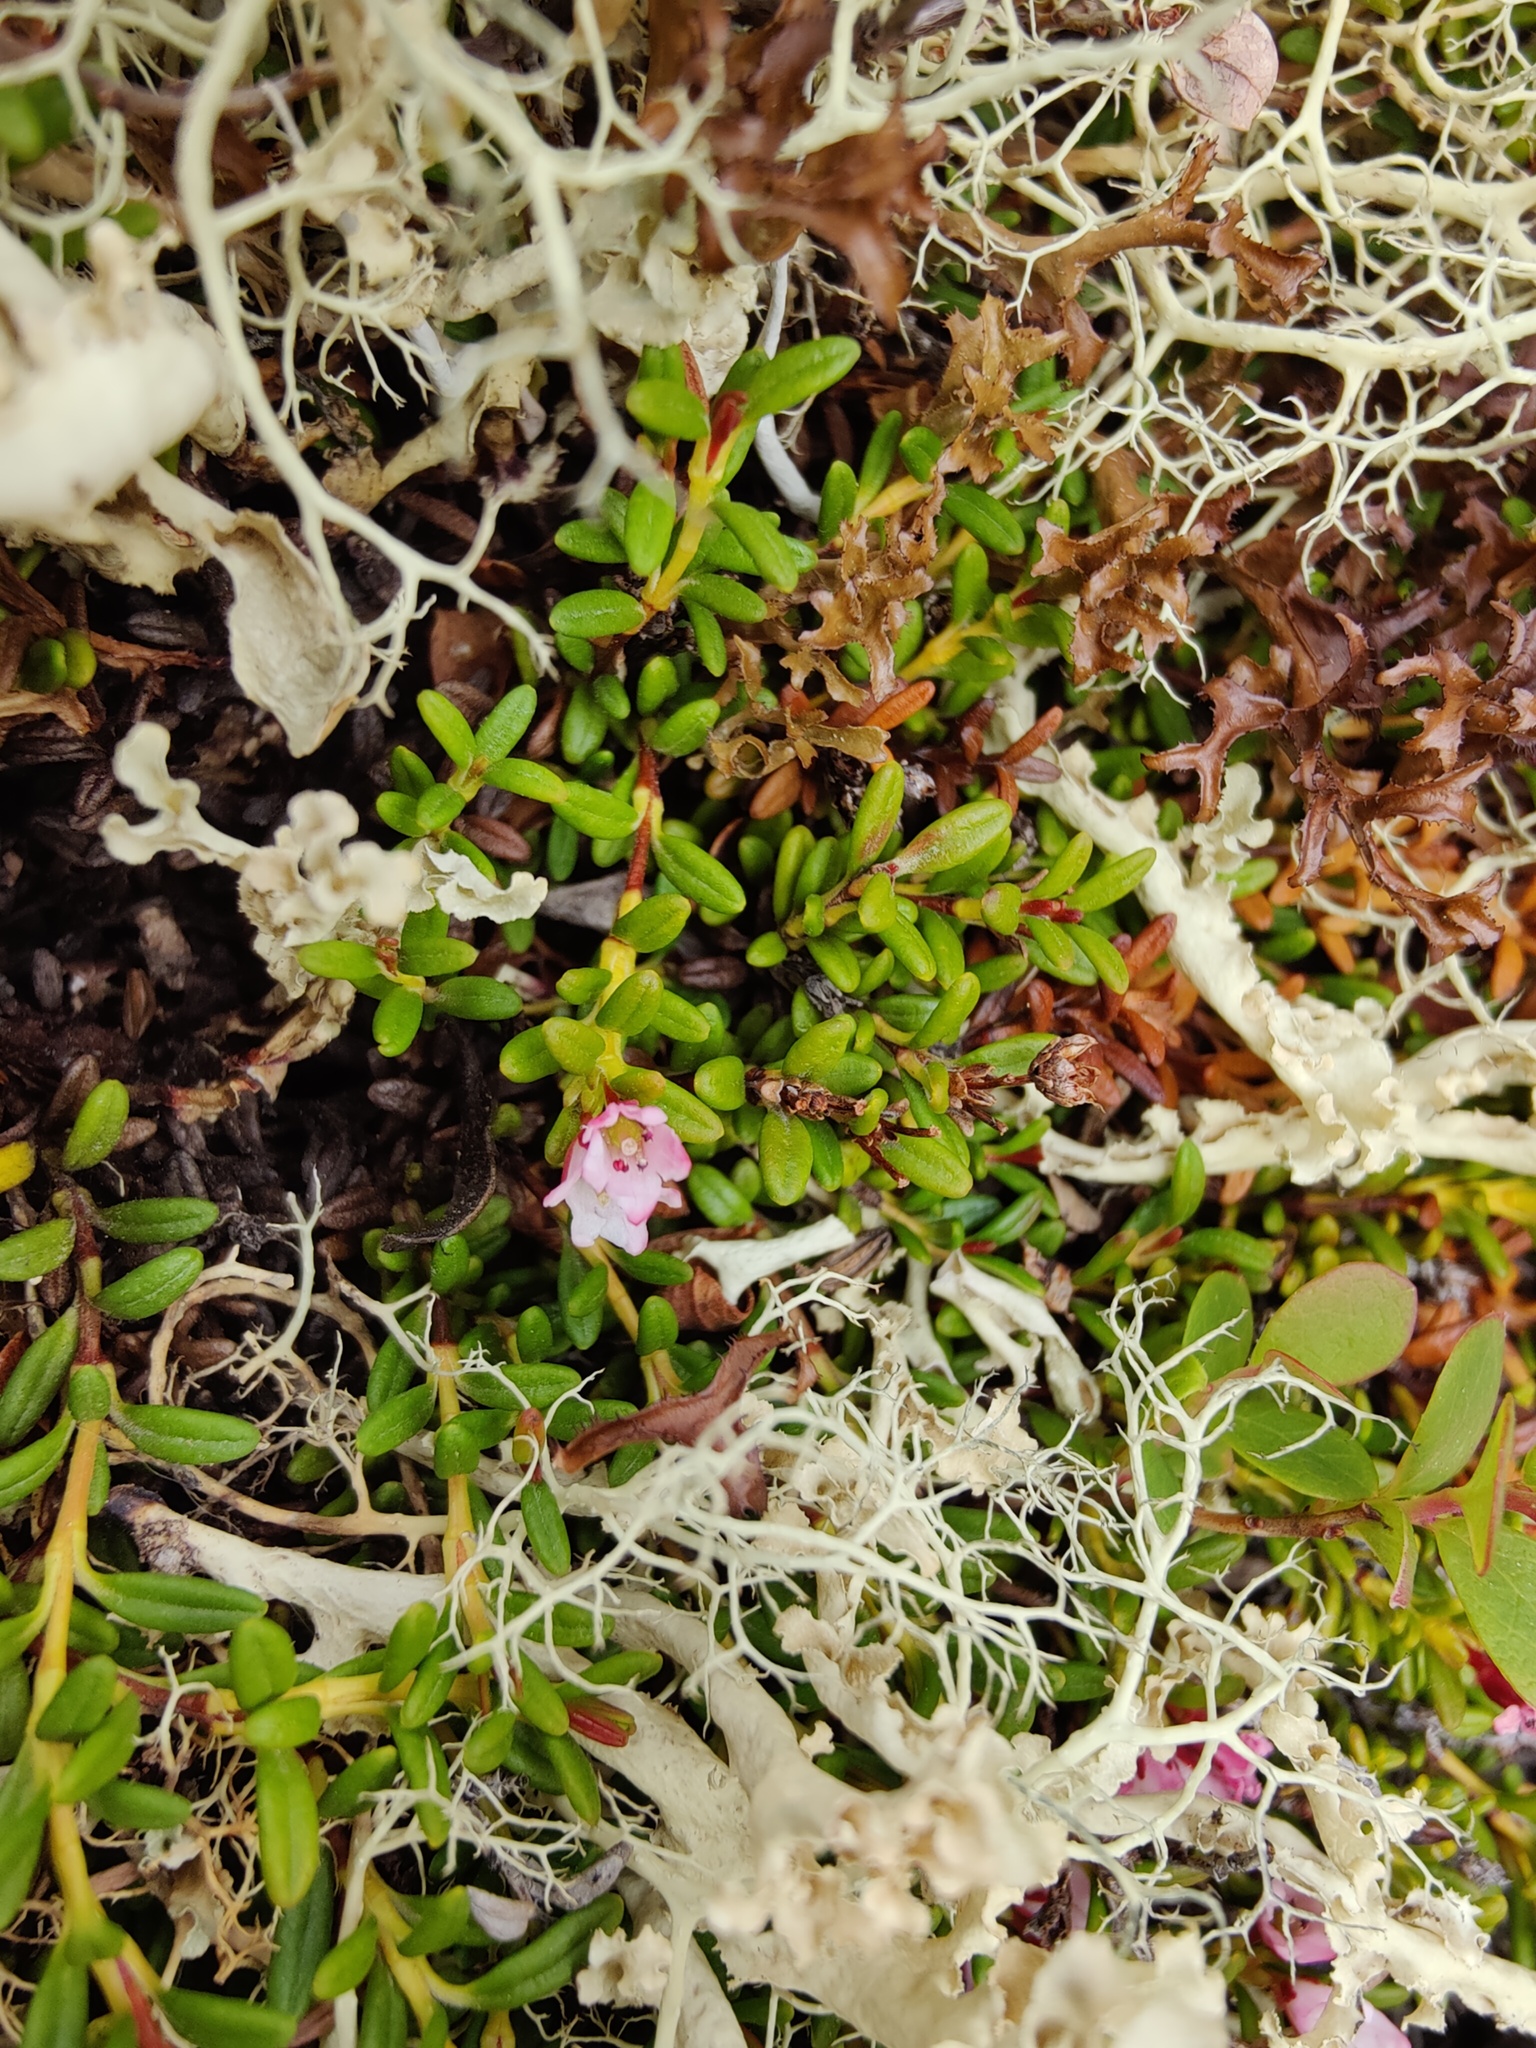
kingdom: Plantae
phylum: Tracheophyta
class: Magnoliopsida
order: Ericales
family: Ericaceae
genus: Kalmia
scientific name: Kalmia procumbens
